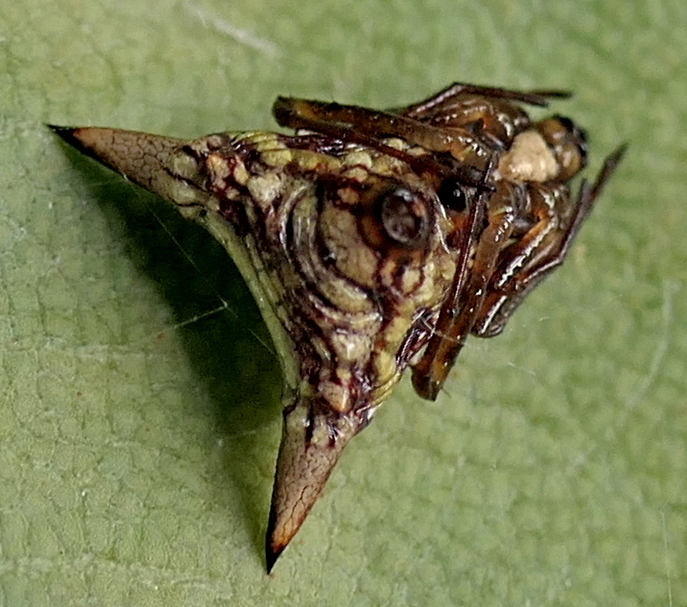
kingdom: Animalia
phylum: Arthropoda
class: Arachnida
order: Araneae
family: Araneidae
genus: Micrathena
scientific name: Micrathena evansi
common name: Orb weavers
